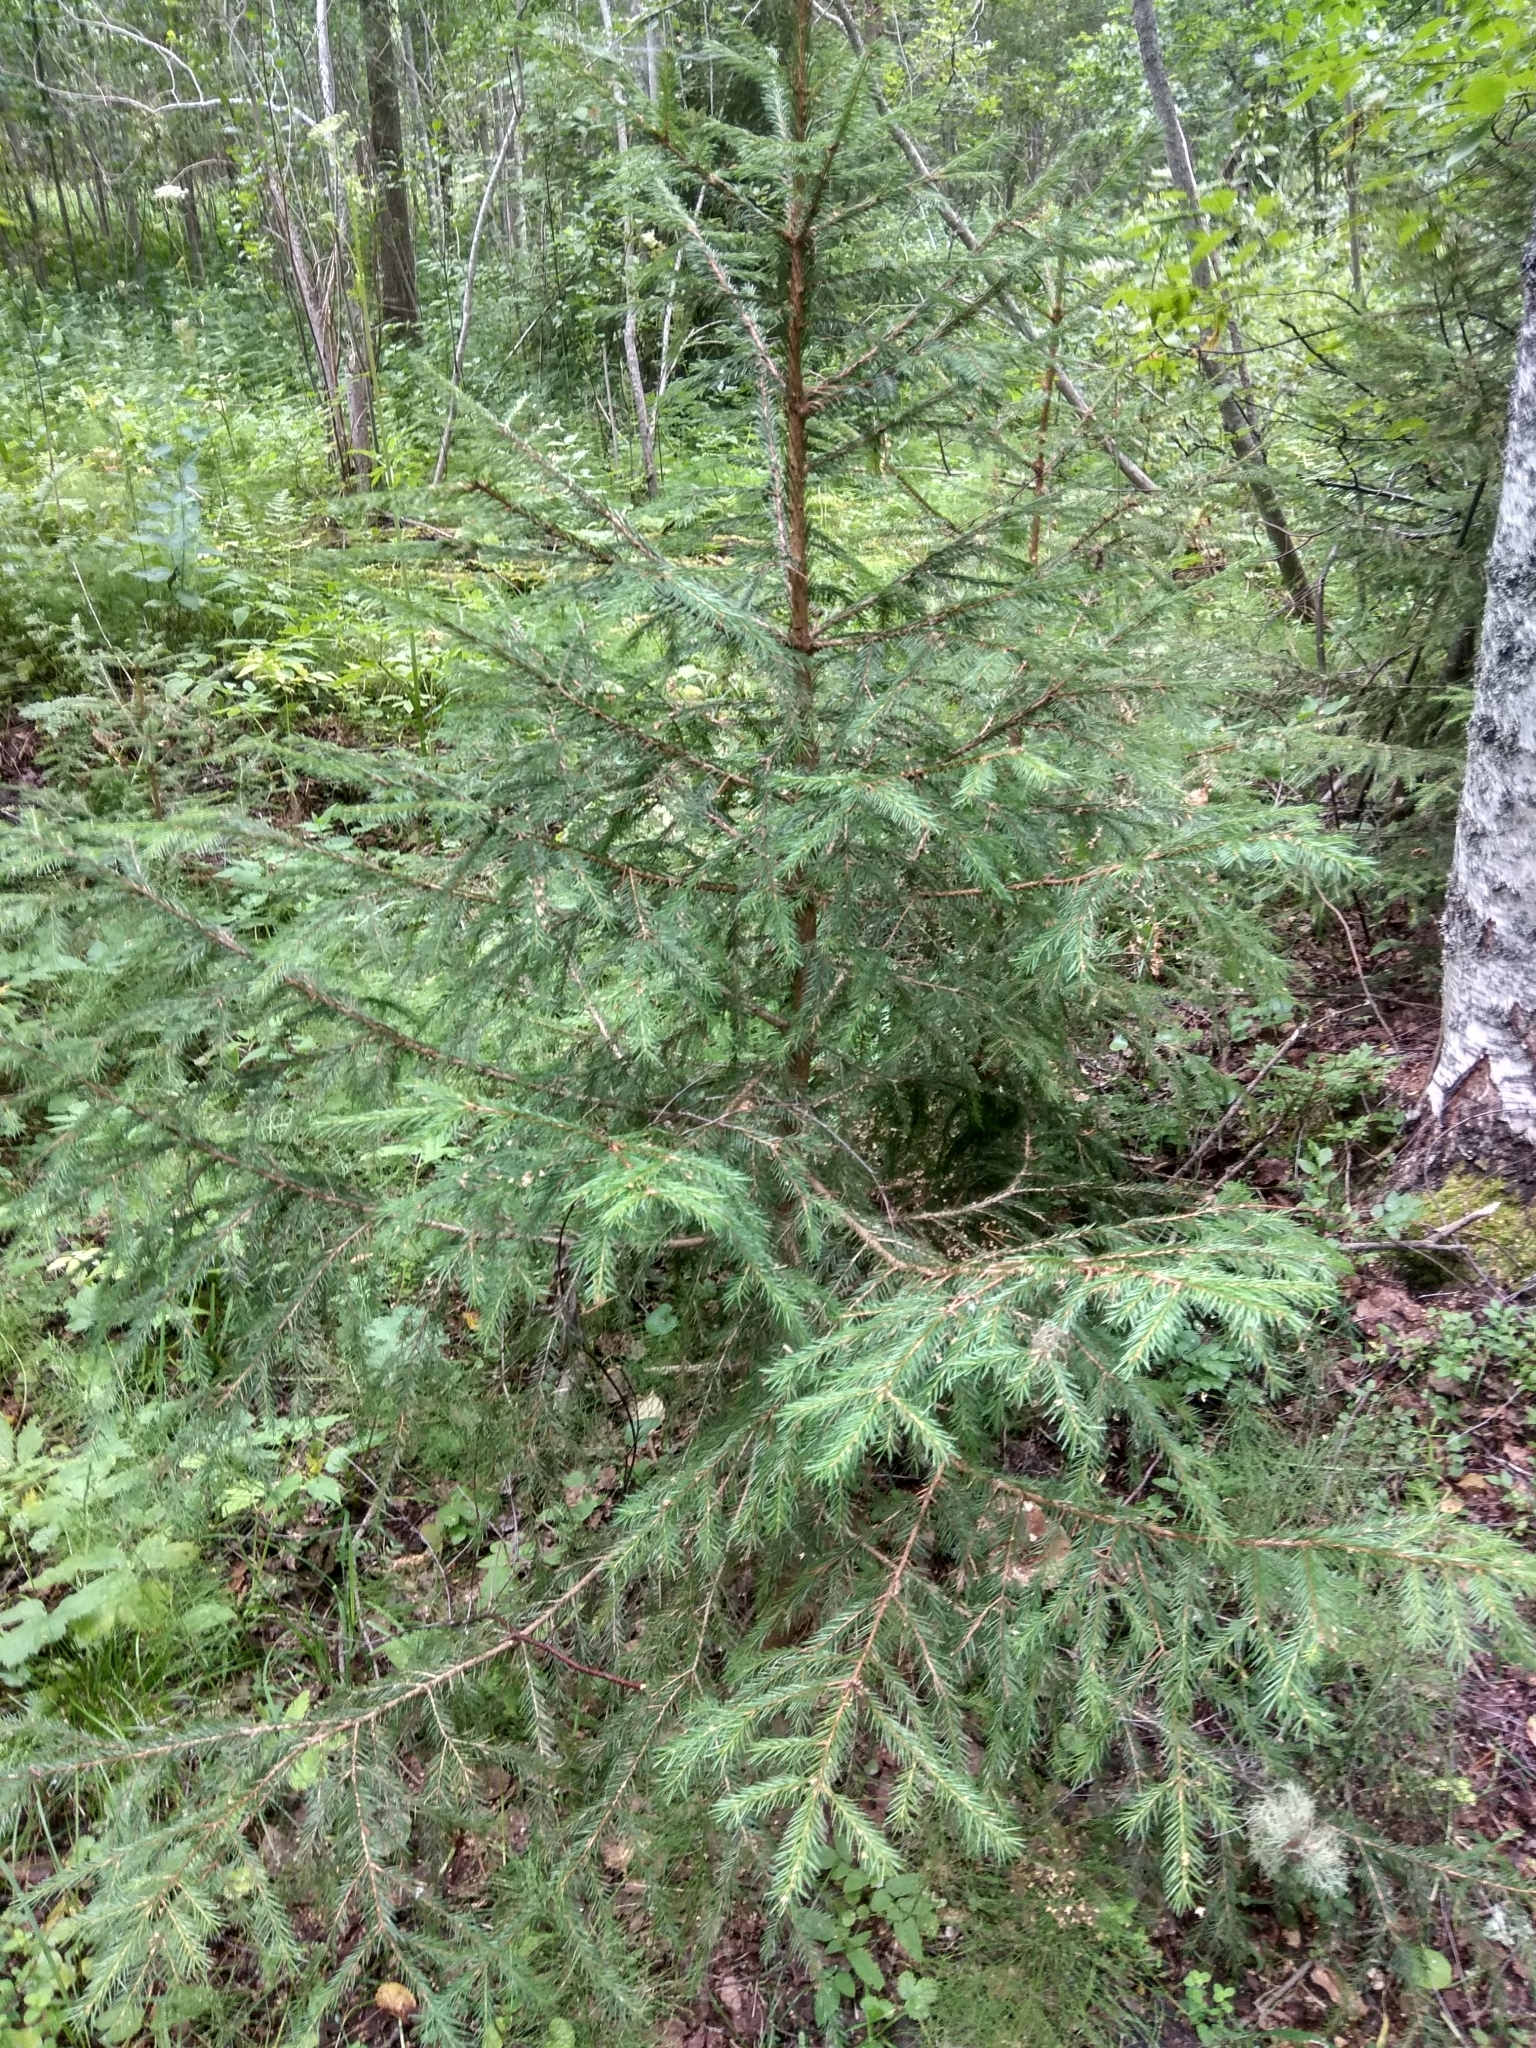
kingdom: Plantae
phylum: Tracheophyta
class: Pinopsida
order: Pinales
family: Pinaceae
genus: Picea
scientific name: Picea abies
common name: Norway spruce
